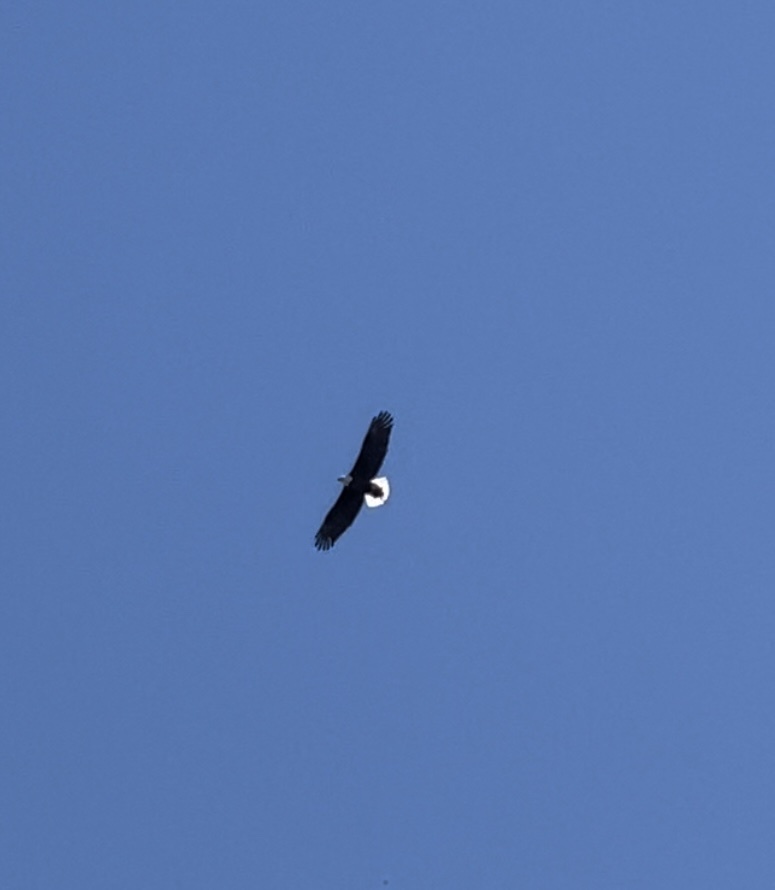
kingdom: Animalia
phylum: Chordata
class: Aves
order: Accipitriformes
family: Accipitridae
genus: Haliaeetus
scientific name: Haliaeetus leucocephalus
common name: Bald eagle
